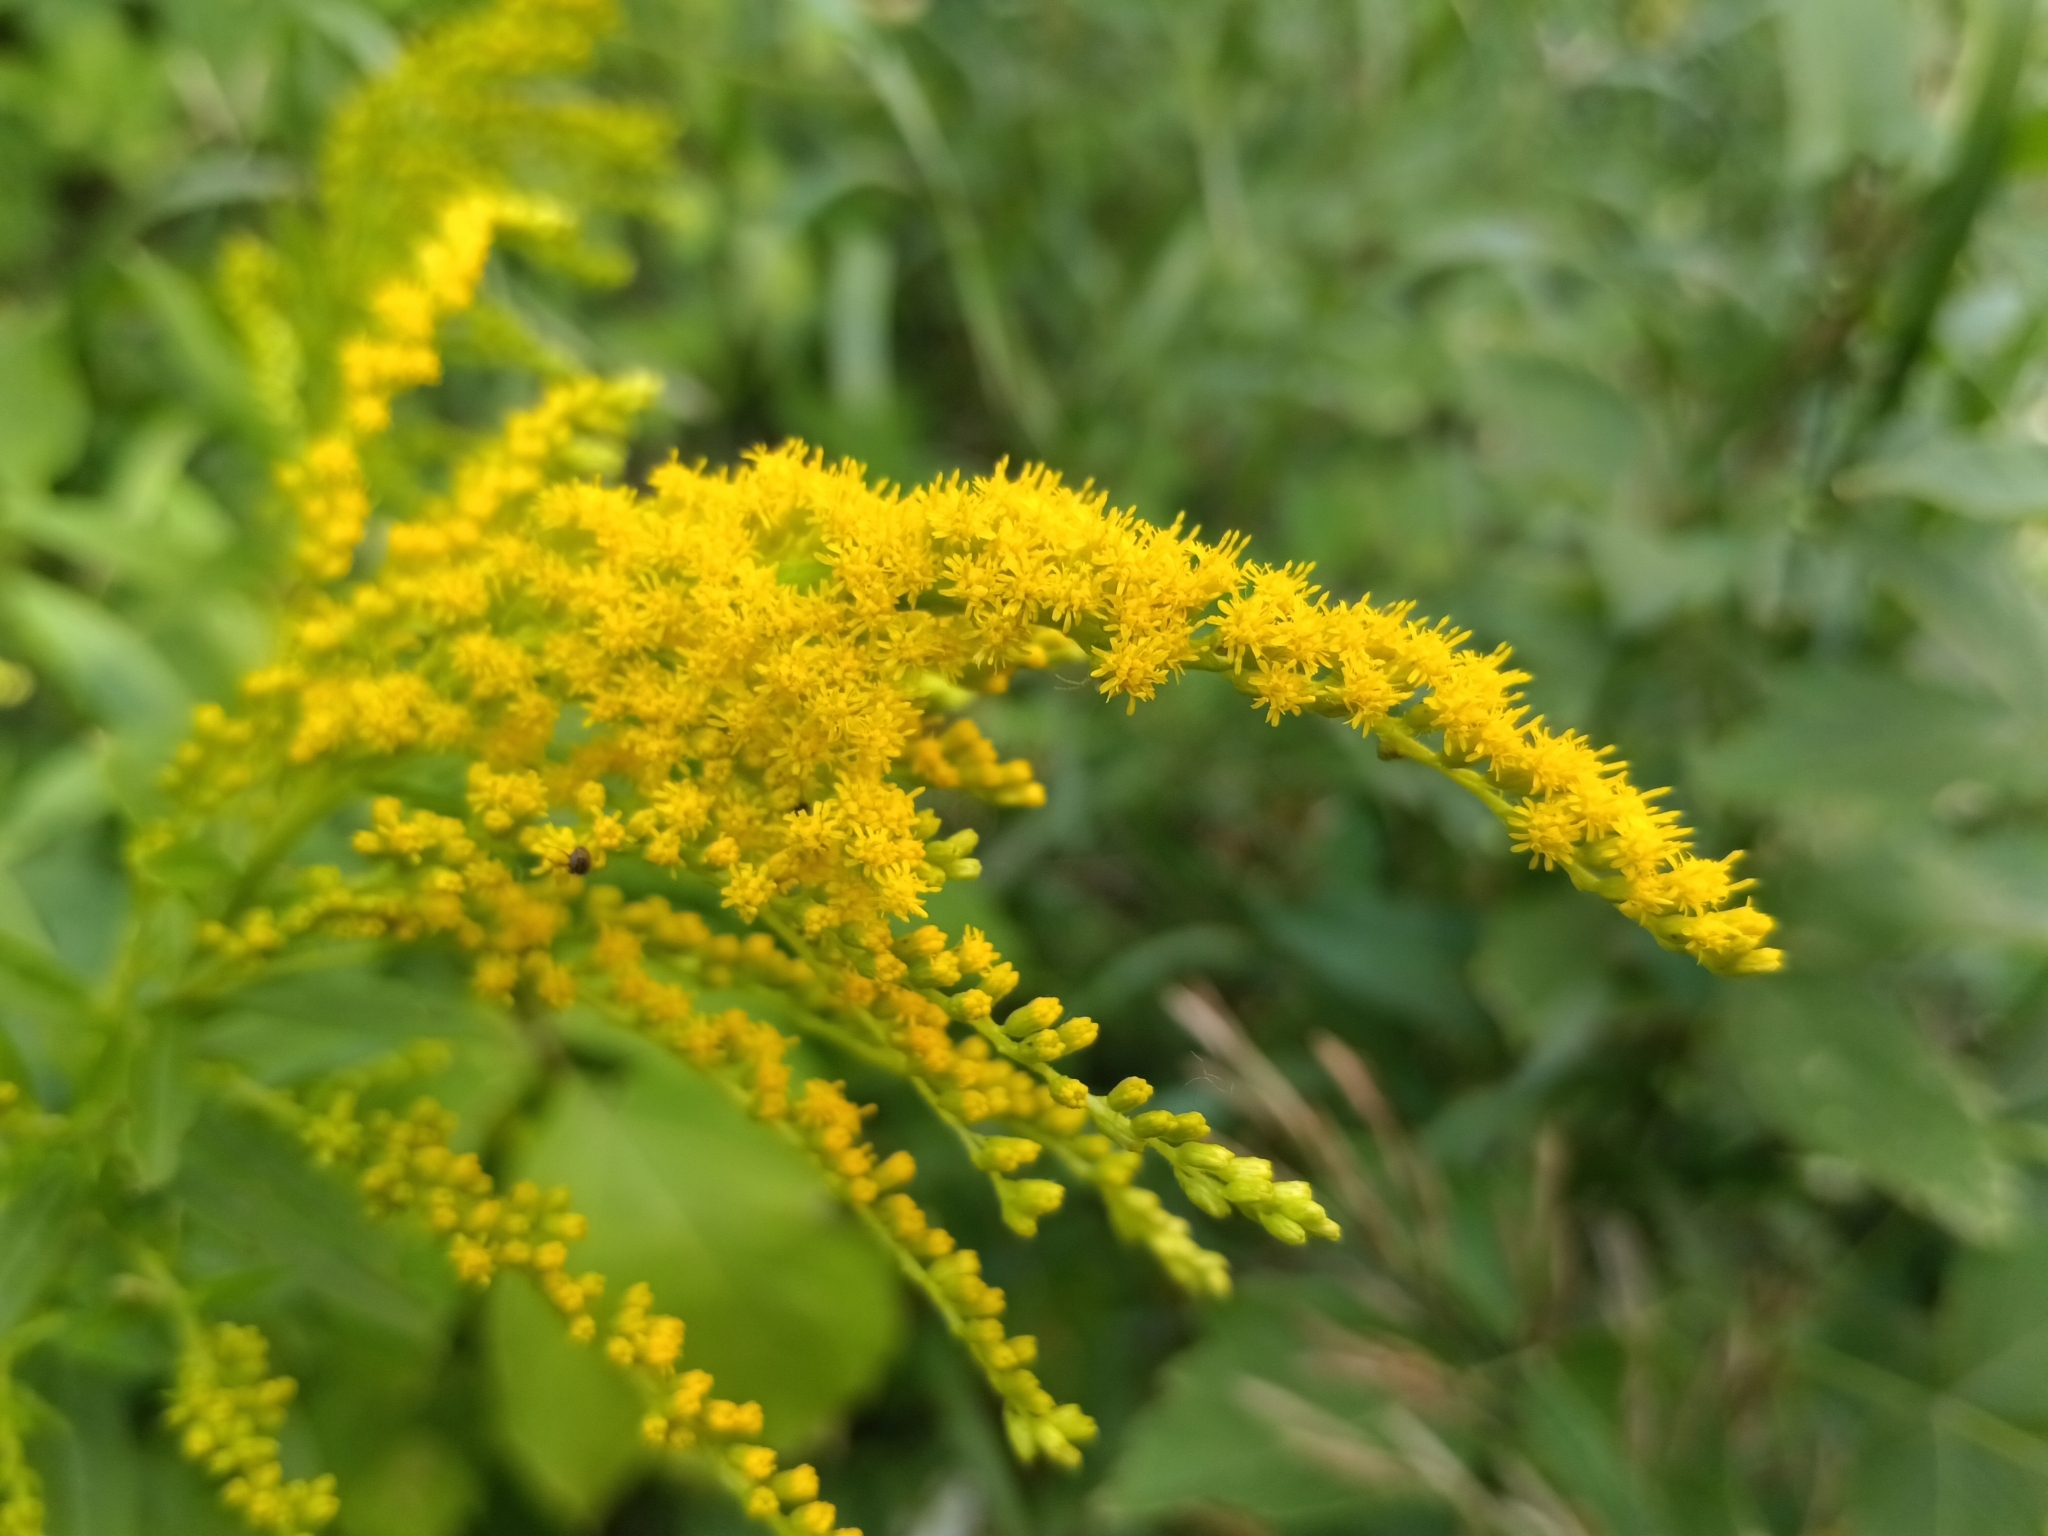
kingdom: Plantae
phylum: Tracheophyta
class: Magnoliopsida
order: Asterales
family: Asteraceae
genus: Solidago
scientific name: Solidago canadensis
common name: Canada goldenrod
